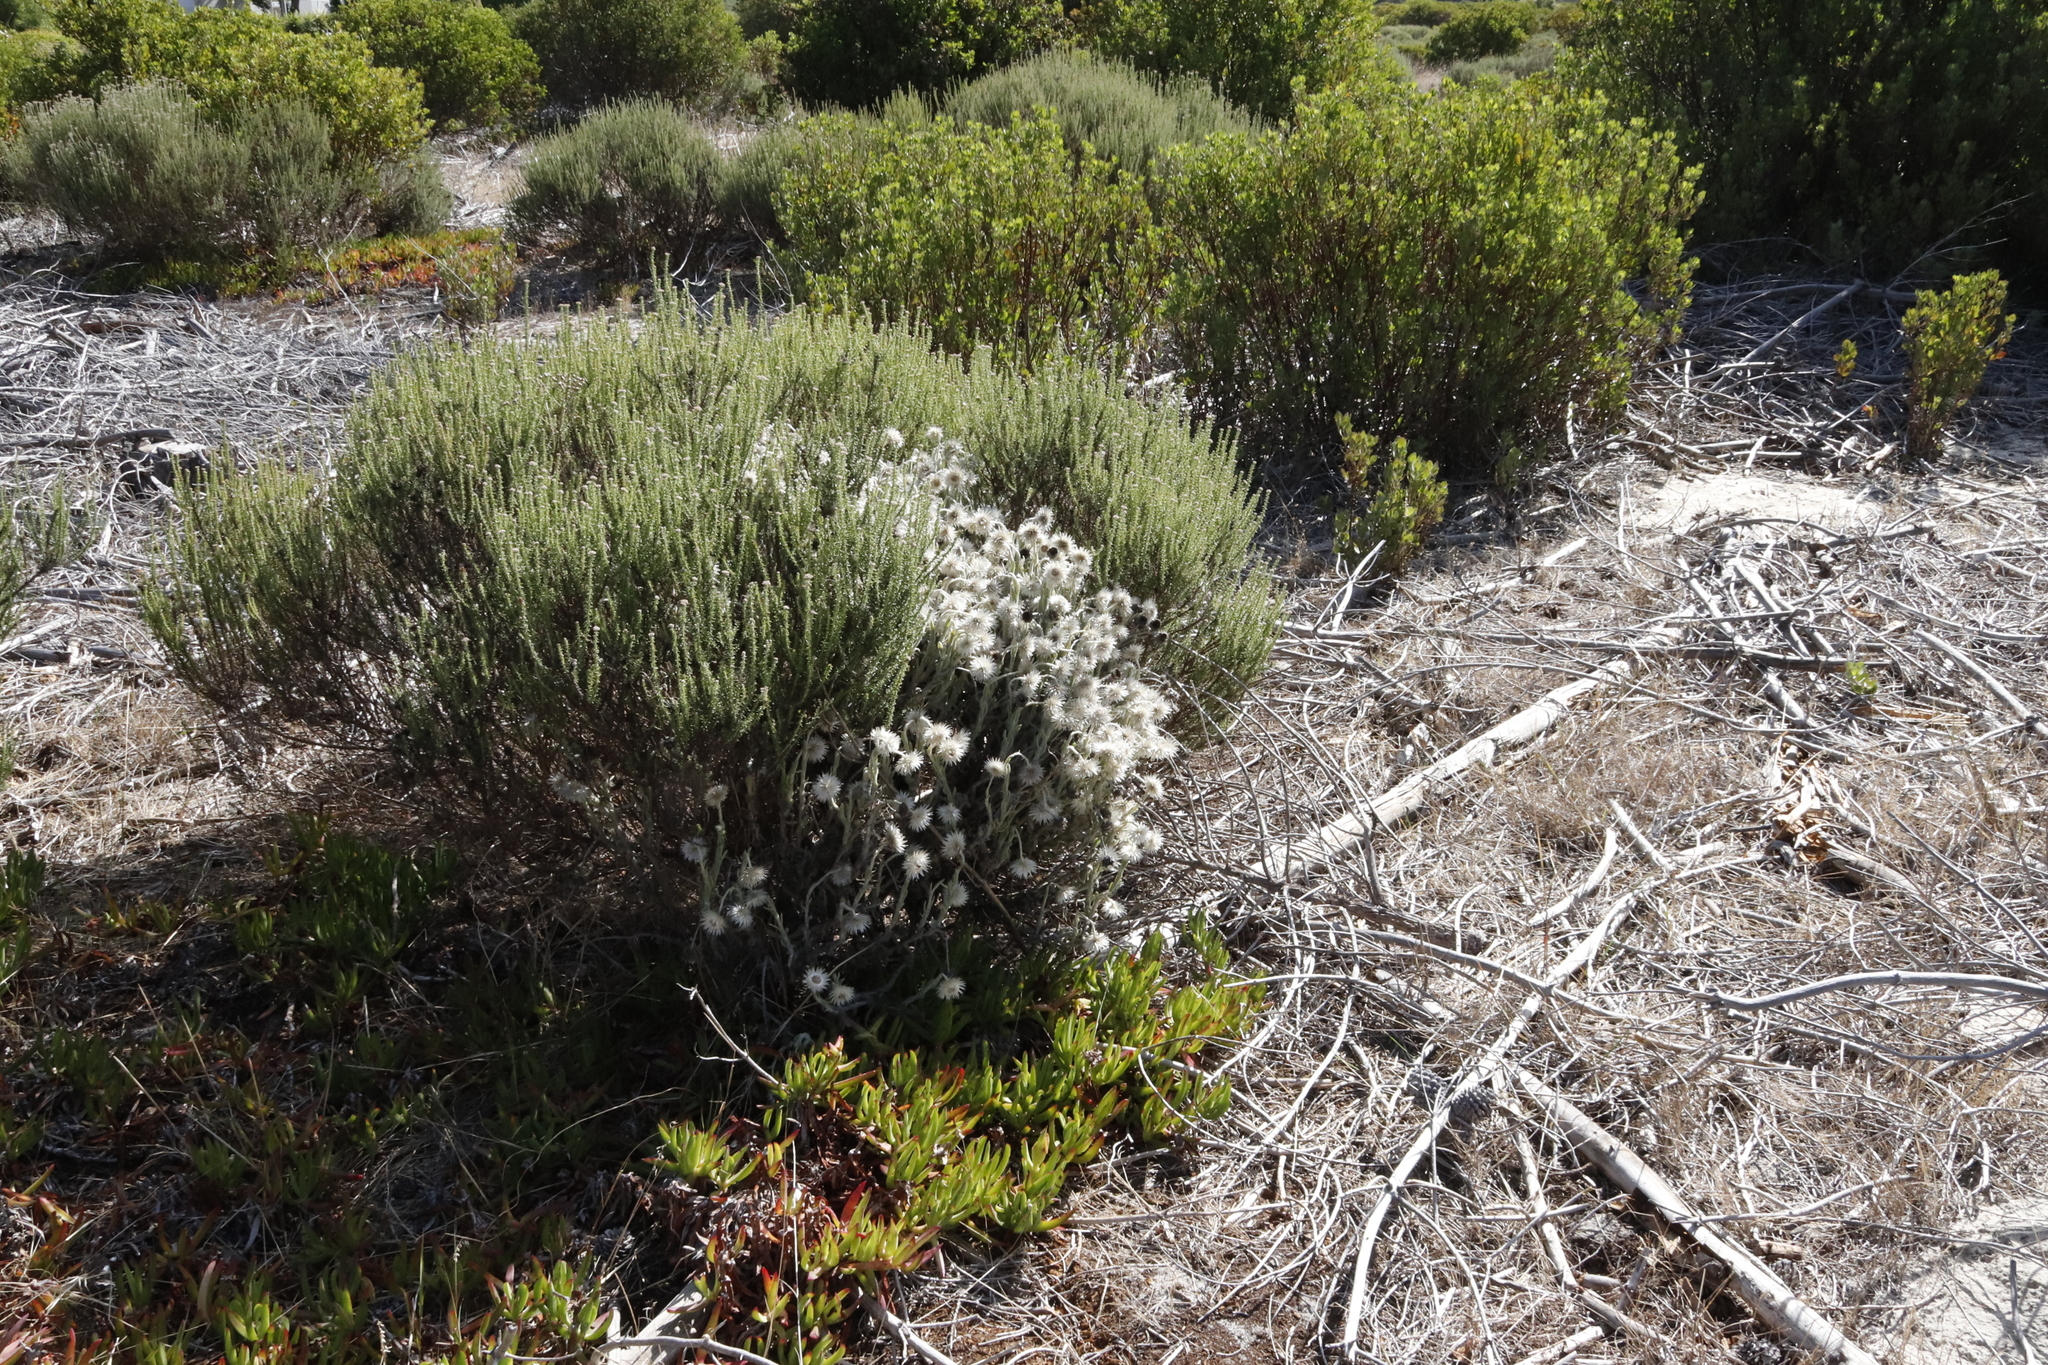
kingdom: Plantae
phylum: Tracheophyta
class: Magnoliopsida
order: Asterales
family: Asteraceae
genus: Syncarpha
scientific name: Syncarpha vestita
